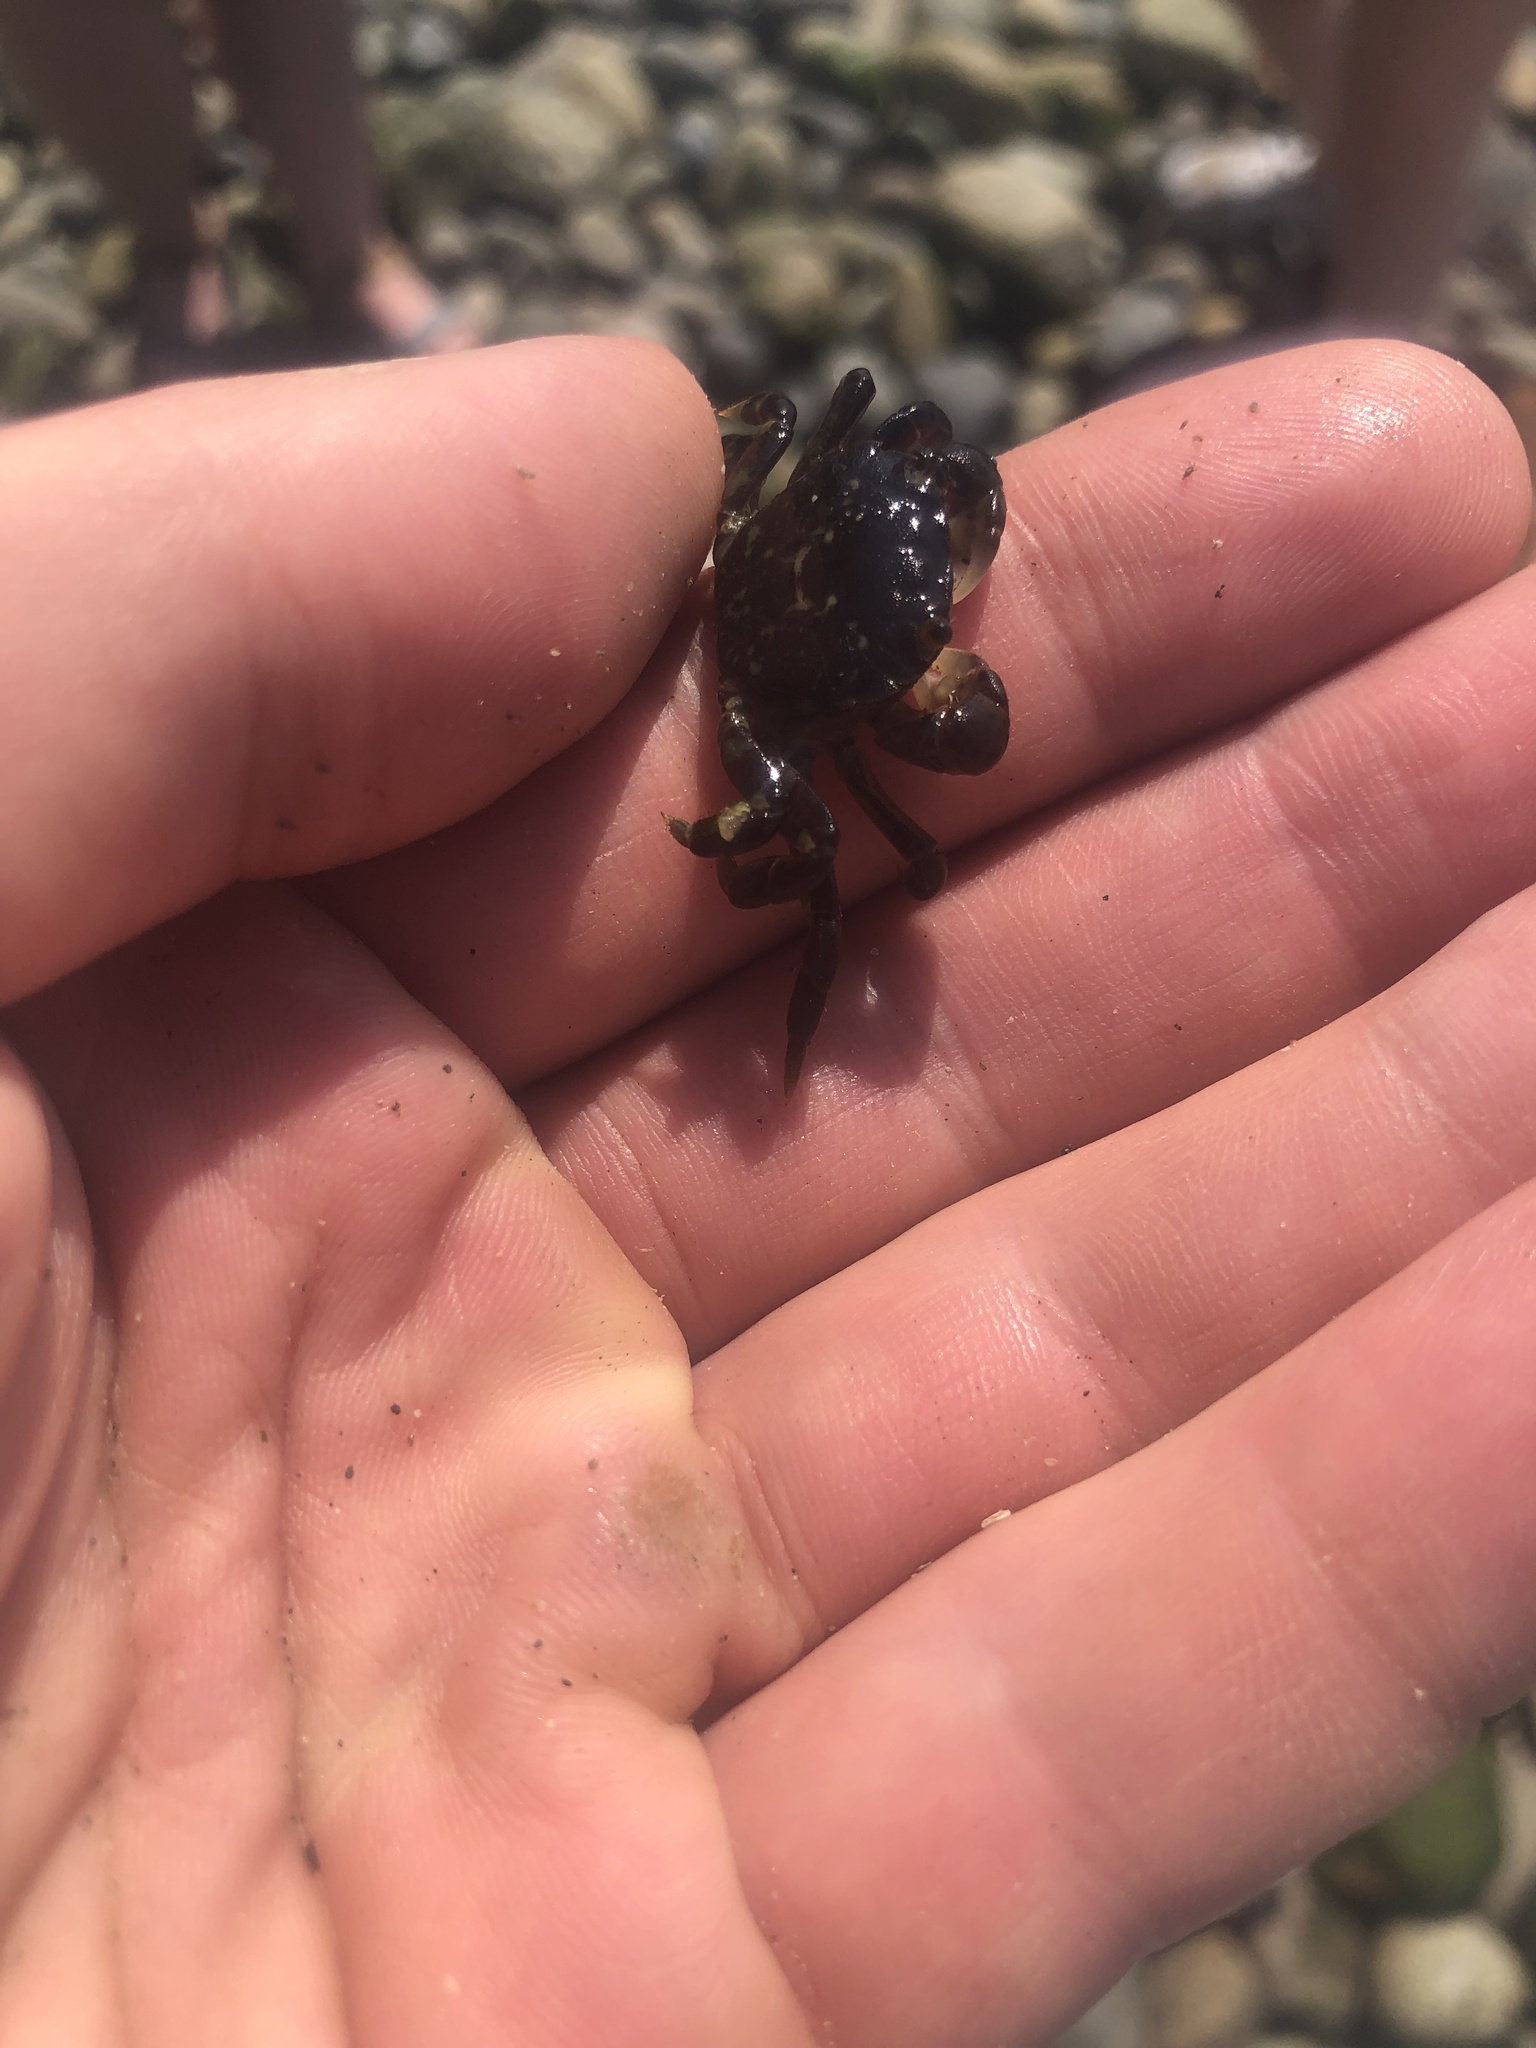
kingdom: Animalia
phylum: Arthropoda
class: Malacostraca
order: Decapoda
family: Varunidae
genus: Hemigrapsus
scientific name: Hemigrapsus nudus
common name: Purple shore crab
